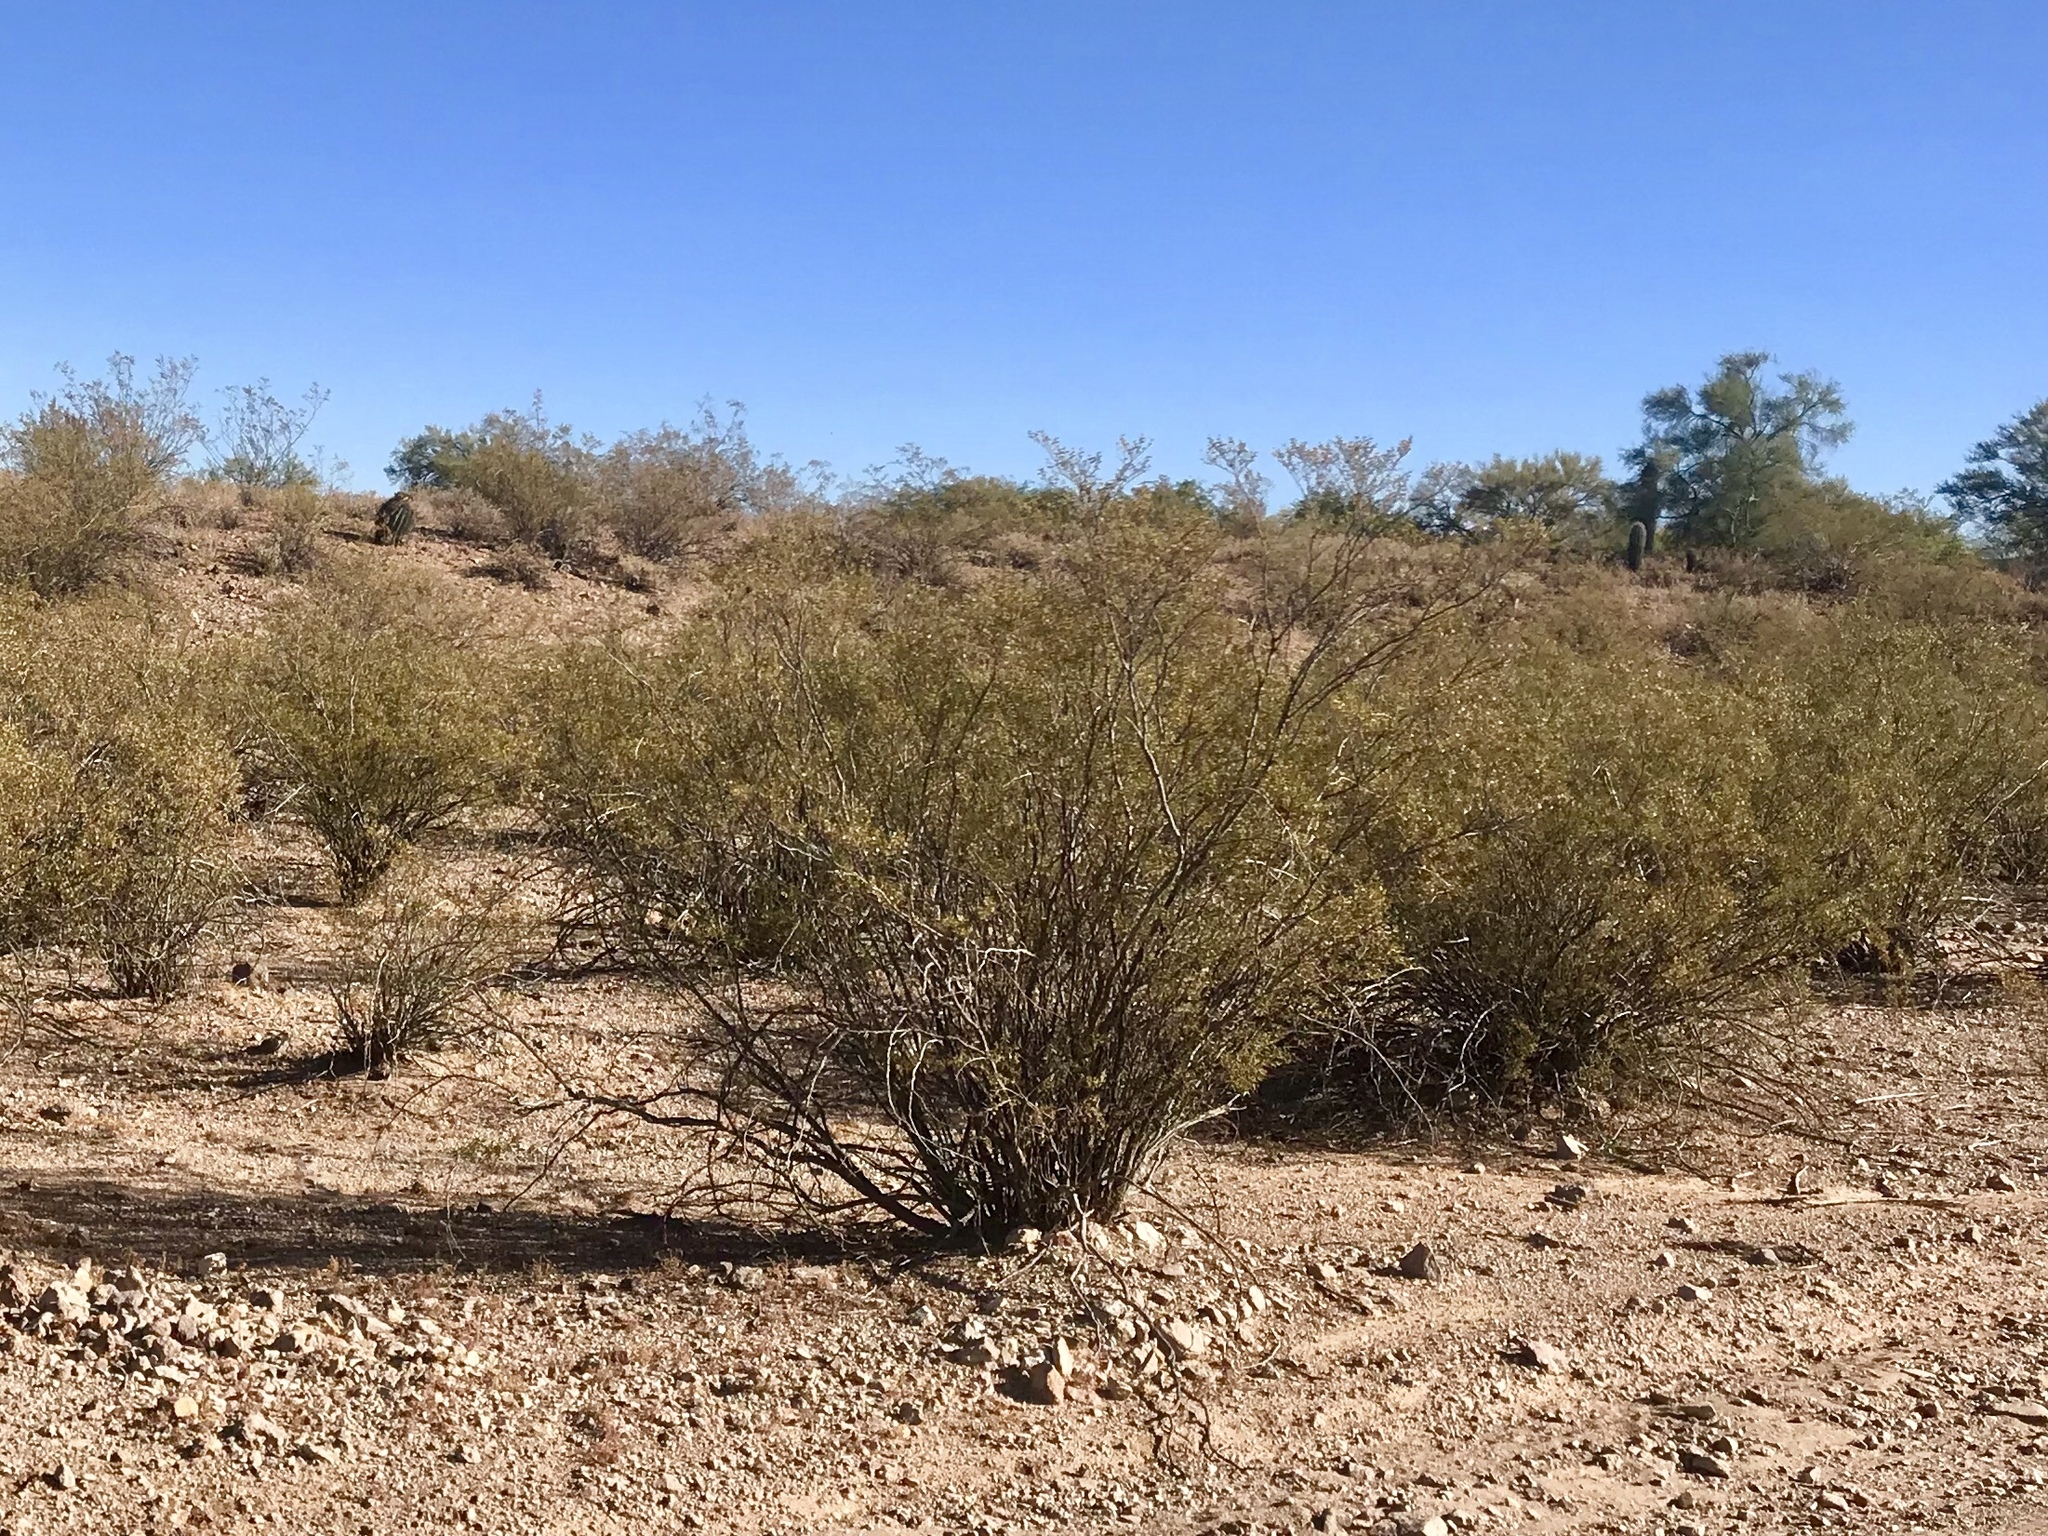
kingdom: Plantae
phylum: Tracheophyta
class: Magnoliopsida
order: Zygophyllales
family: Zygophyllaceae
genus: Larrea
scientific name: Larrea tridentata
